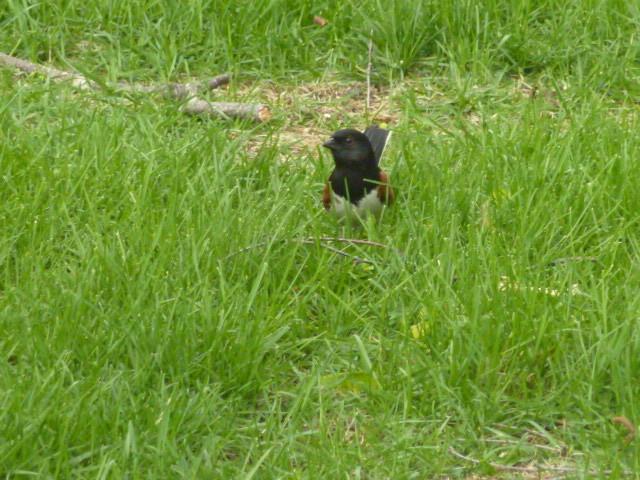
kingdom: Animalia
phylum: Chordata
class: Aves
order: Passeriformes
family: Passerellidae
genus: Pipilo
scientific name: Pipilo erythrophthalmus
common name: Eastern towhee
